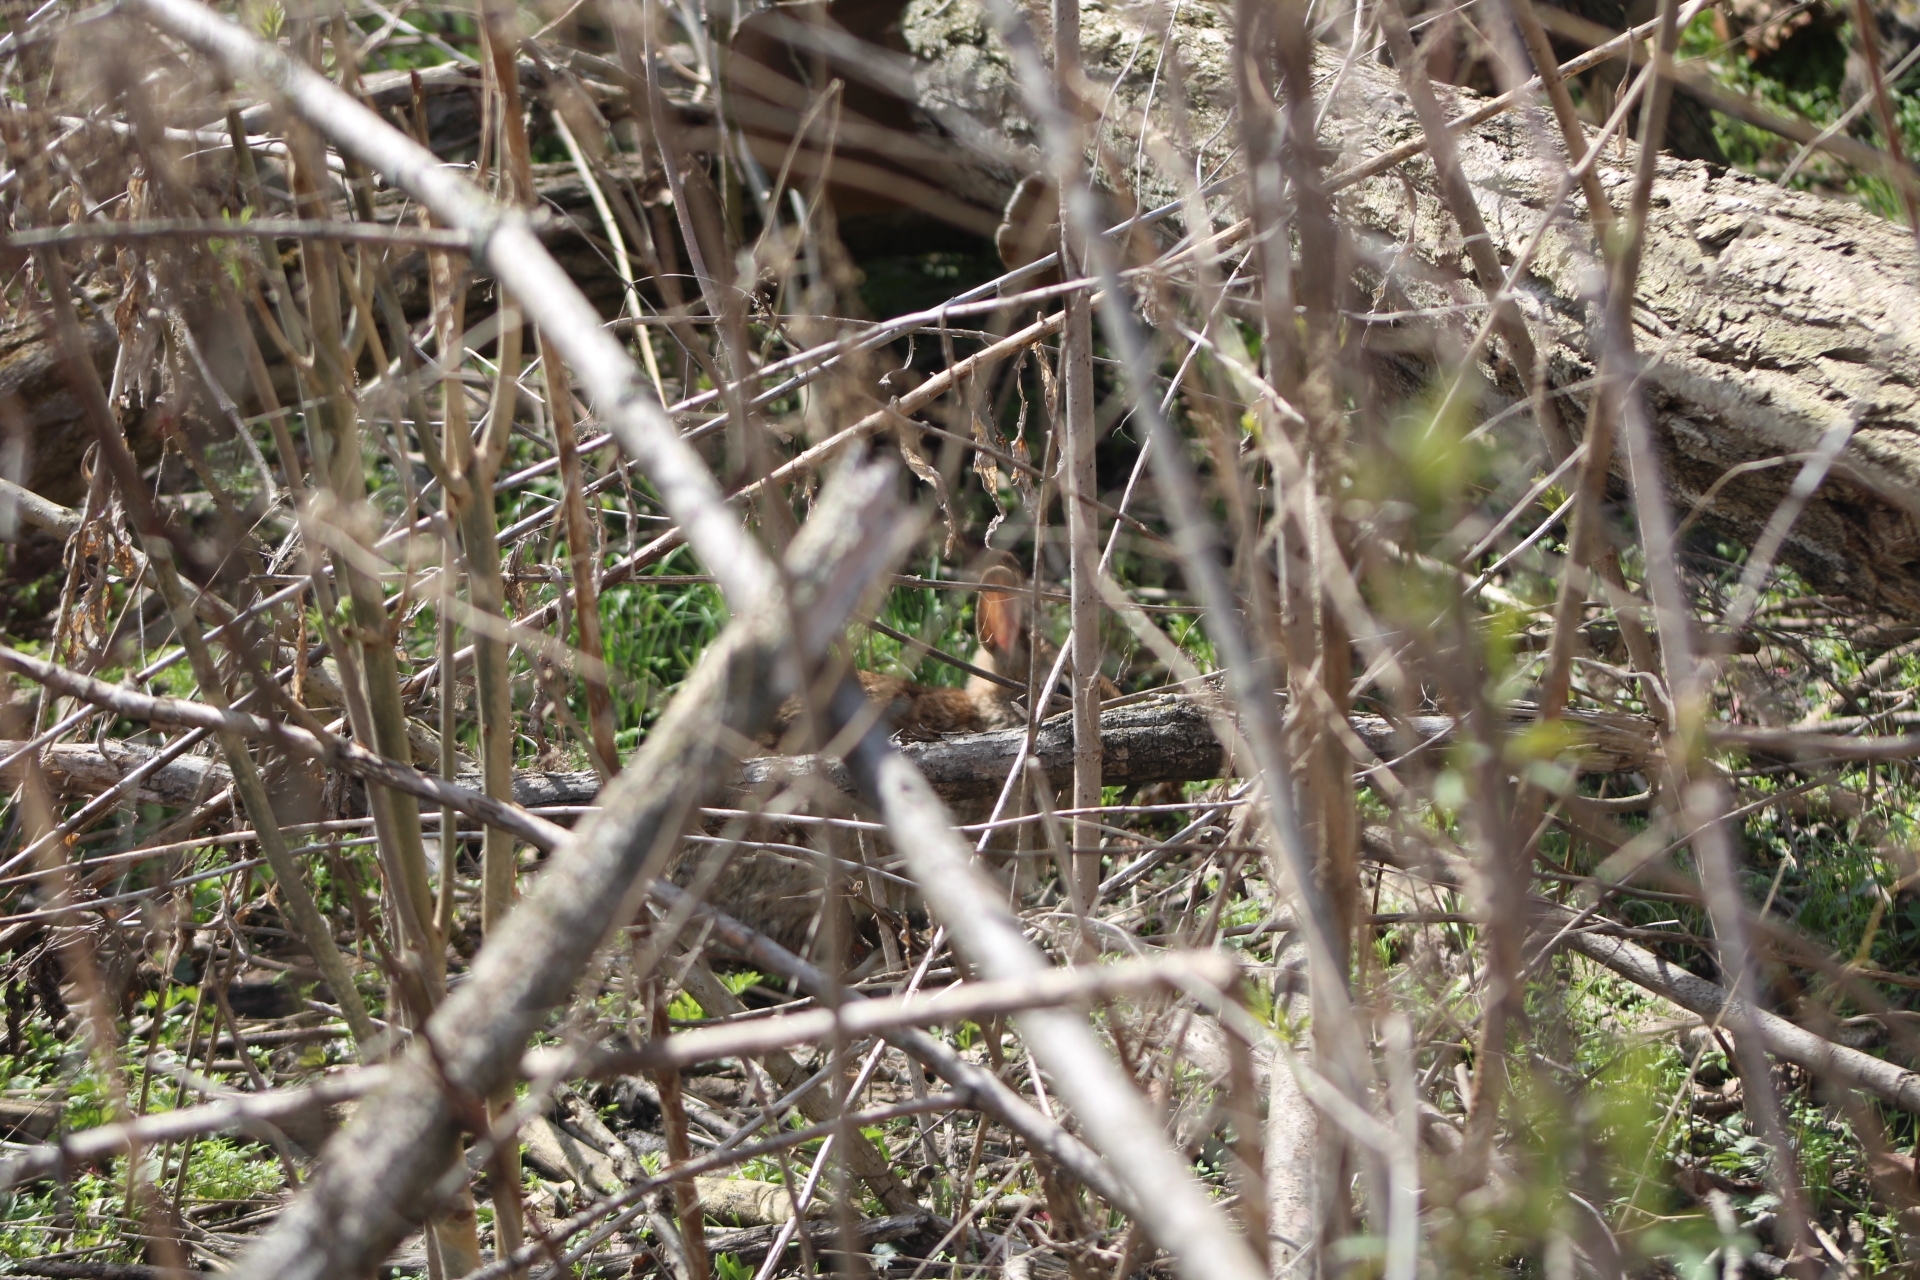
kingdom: Animalia
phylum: Chordata
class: Mammalia
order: Lagomorpha
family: Leporidae
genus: Sylvilagus
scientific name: Sylvilagus floridanus
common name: Eastern cottontail
